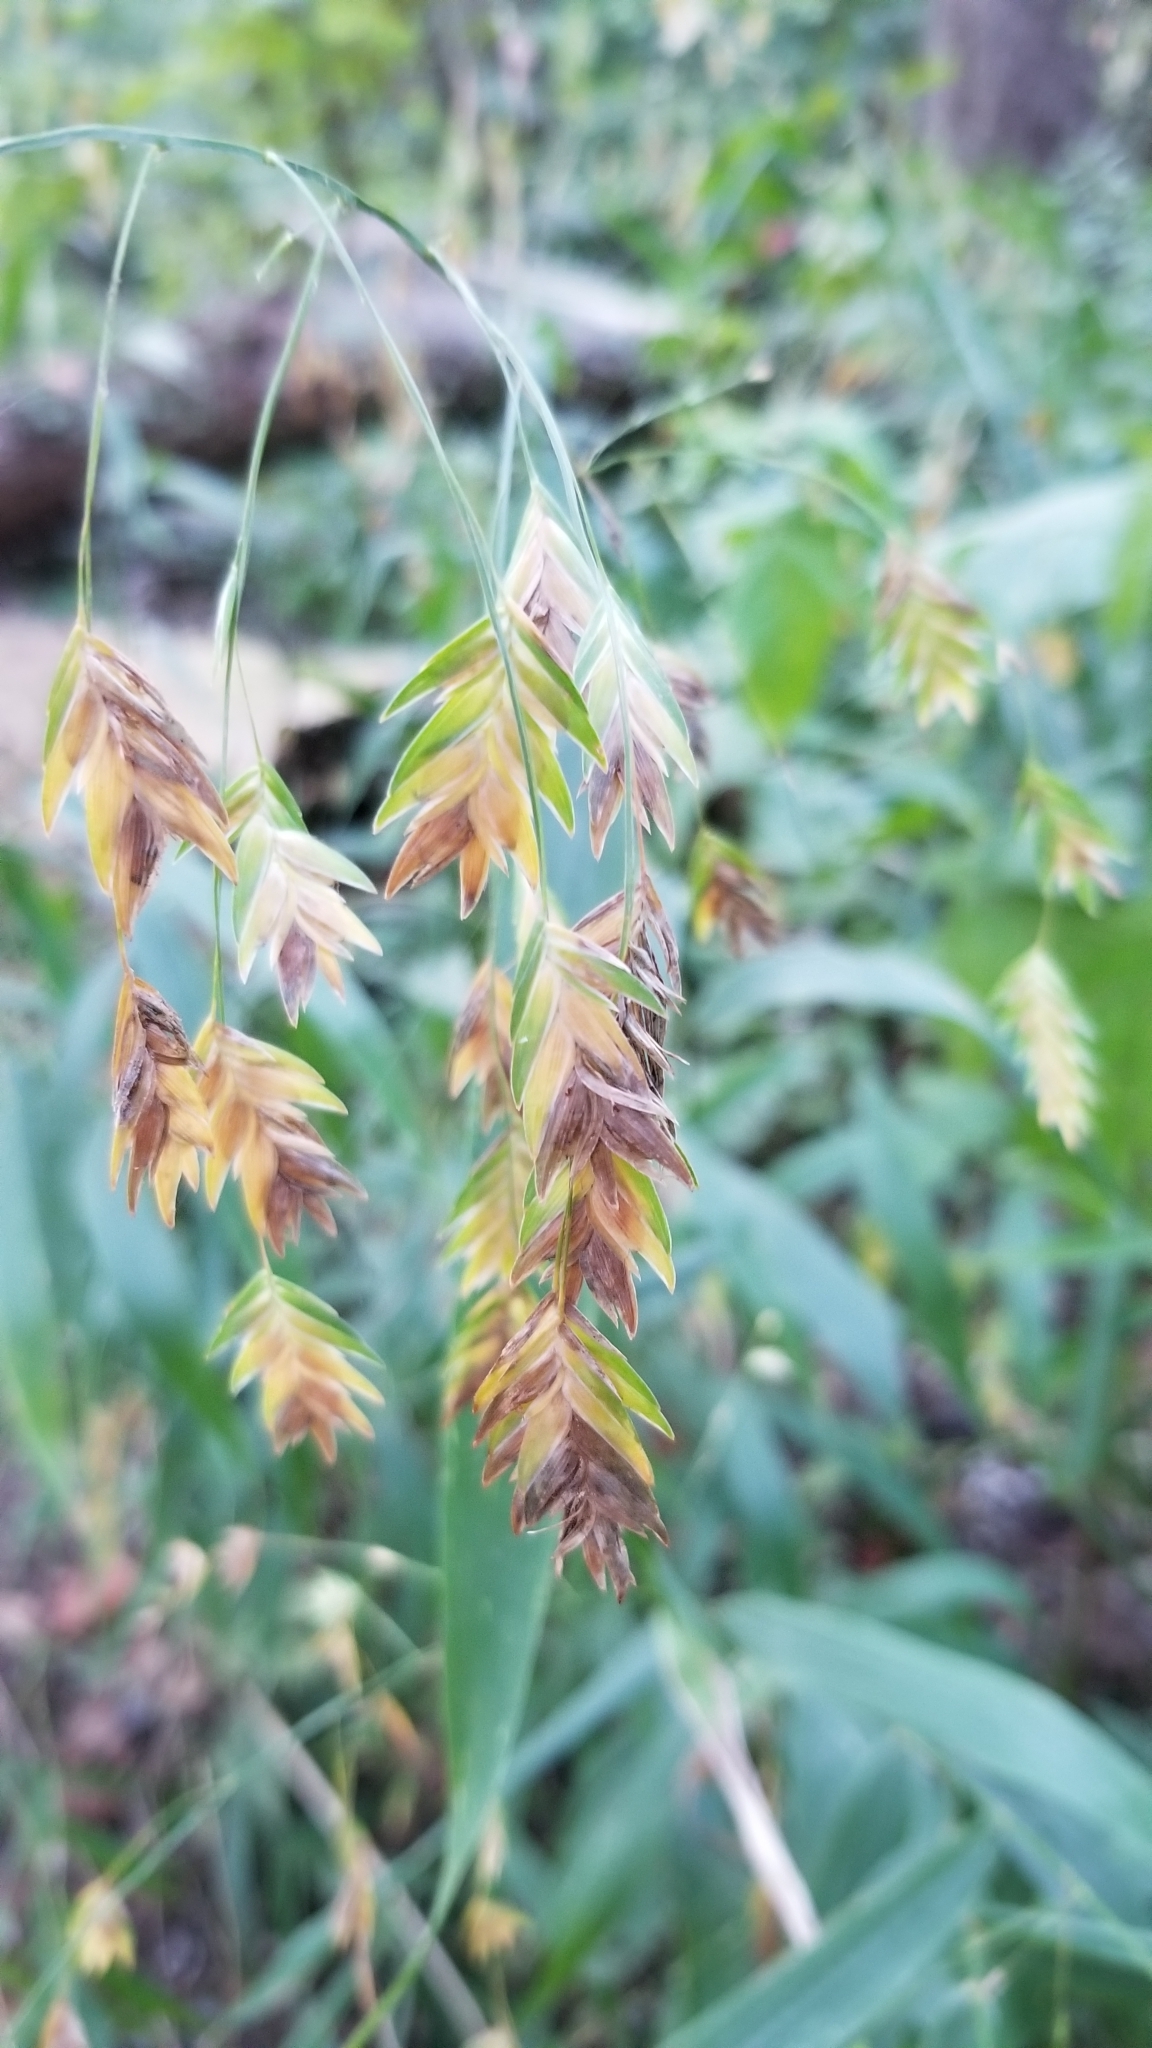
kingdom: Plantae
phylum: Tracheophyta
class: Liliopsida
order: Poales
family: Poaceae
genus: Chasmanthium
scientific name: Chasmanthium latifolium
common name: Broad-leaved chasmanthium
